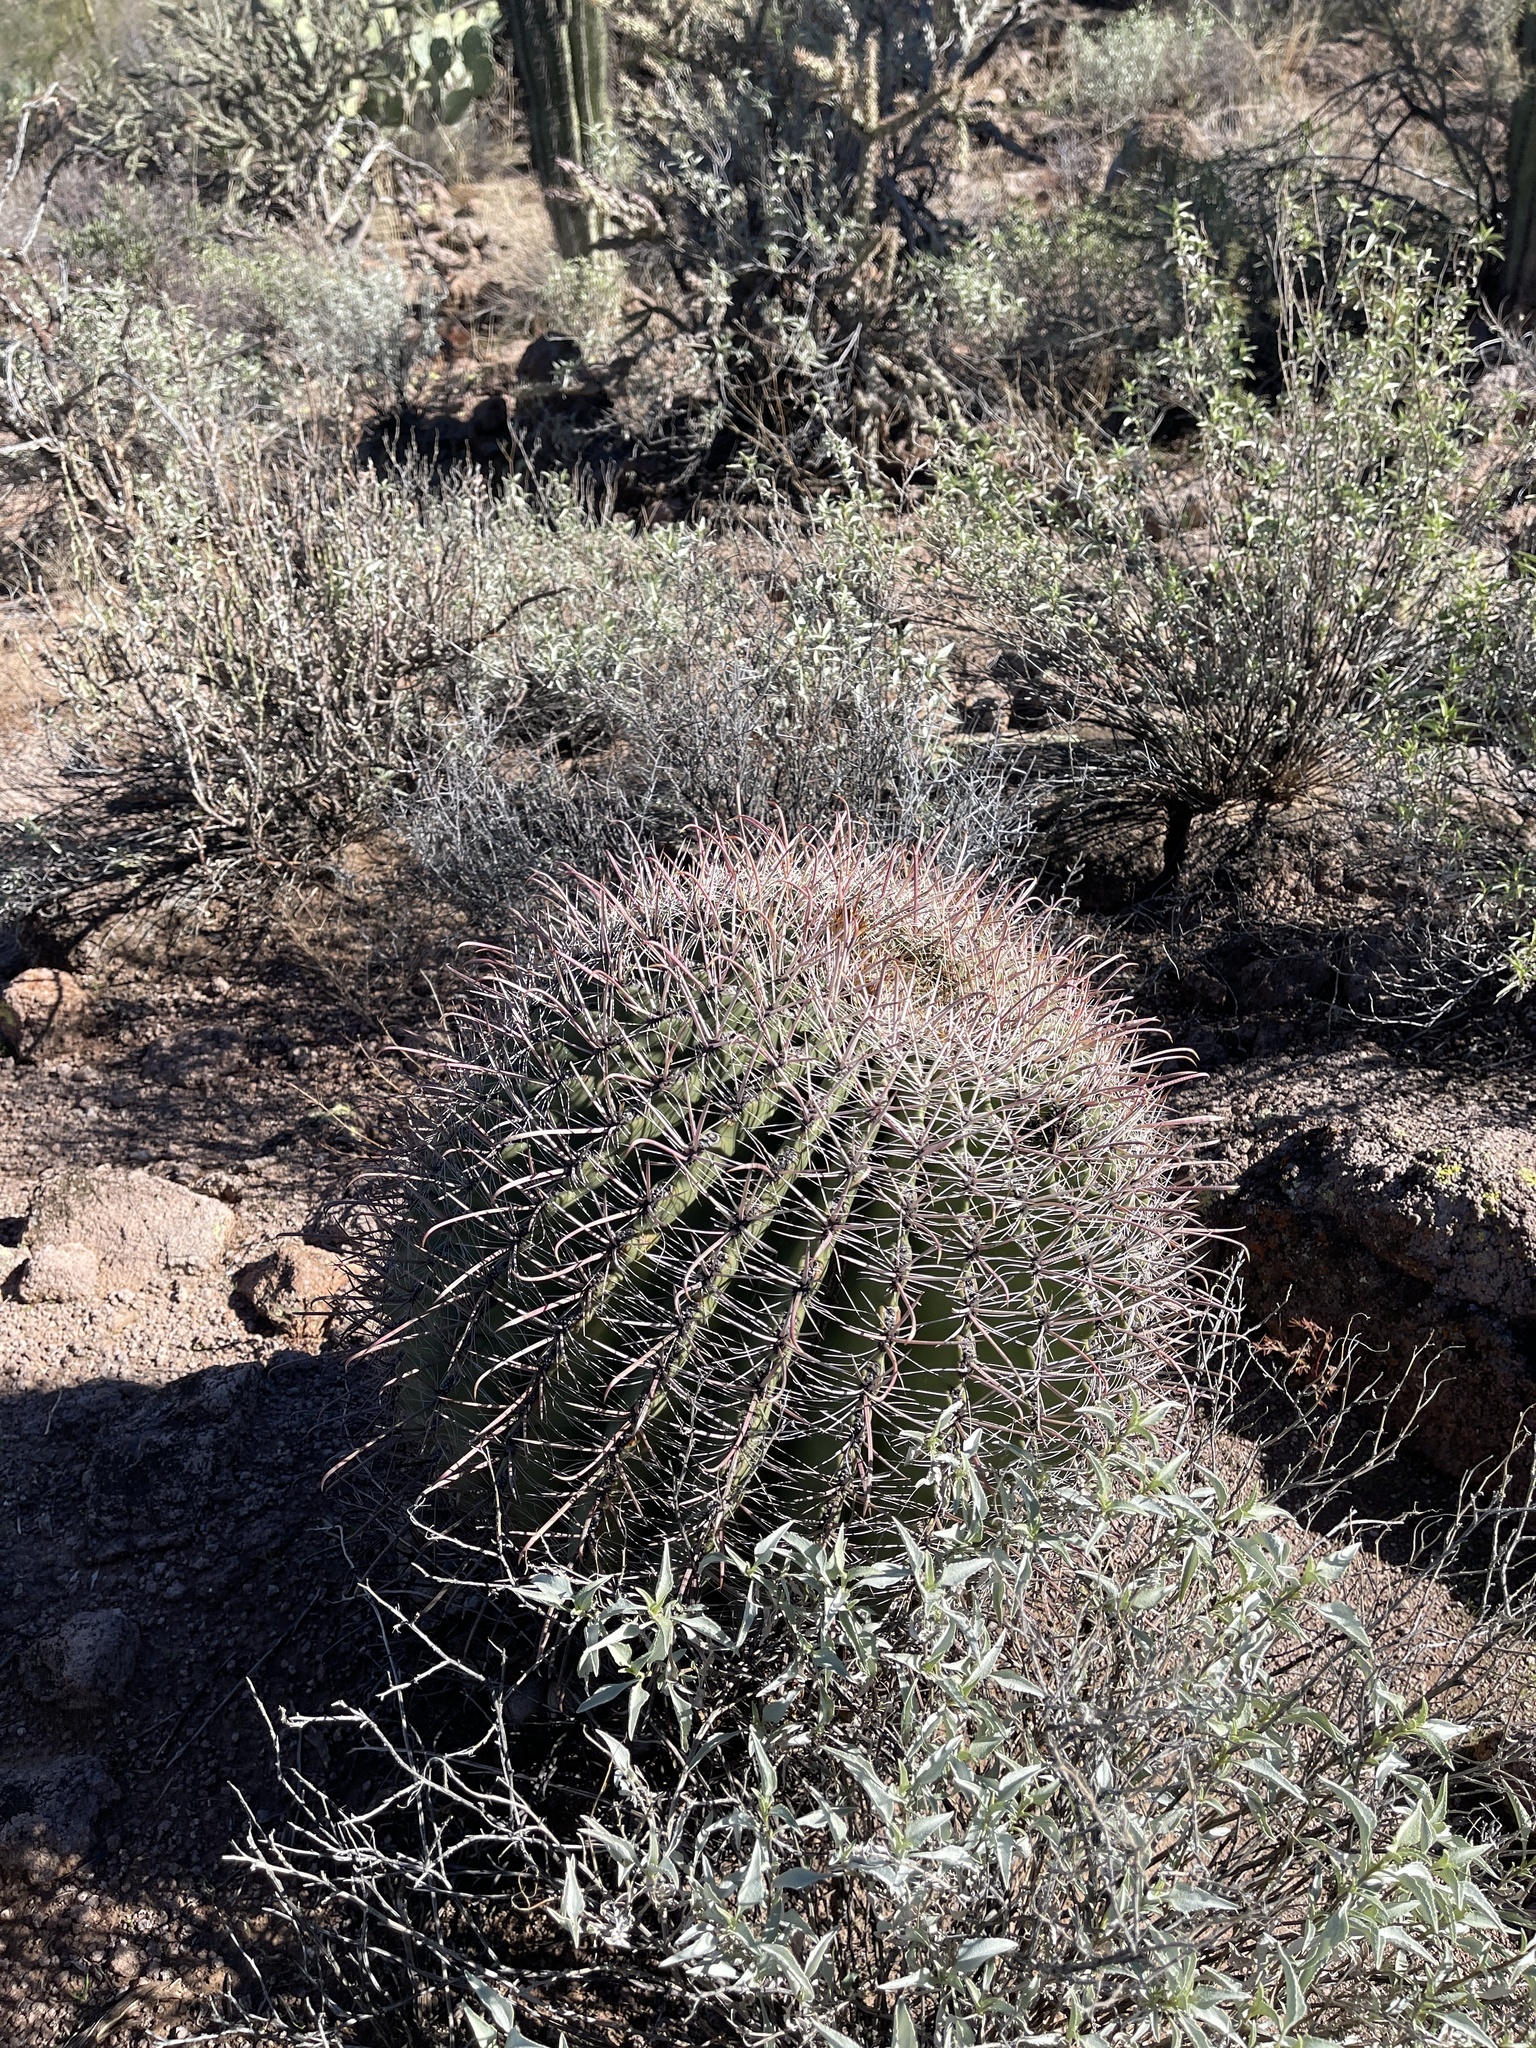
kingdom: Plantae
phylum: Tracheophyta
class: Magnoliopsida
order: Caryophyllales
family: Cactaceae
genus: Ferocactus
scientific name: Ferocactus wislizeni
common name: Candy barrel cactus
